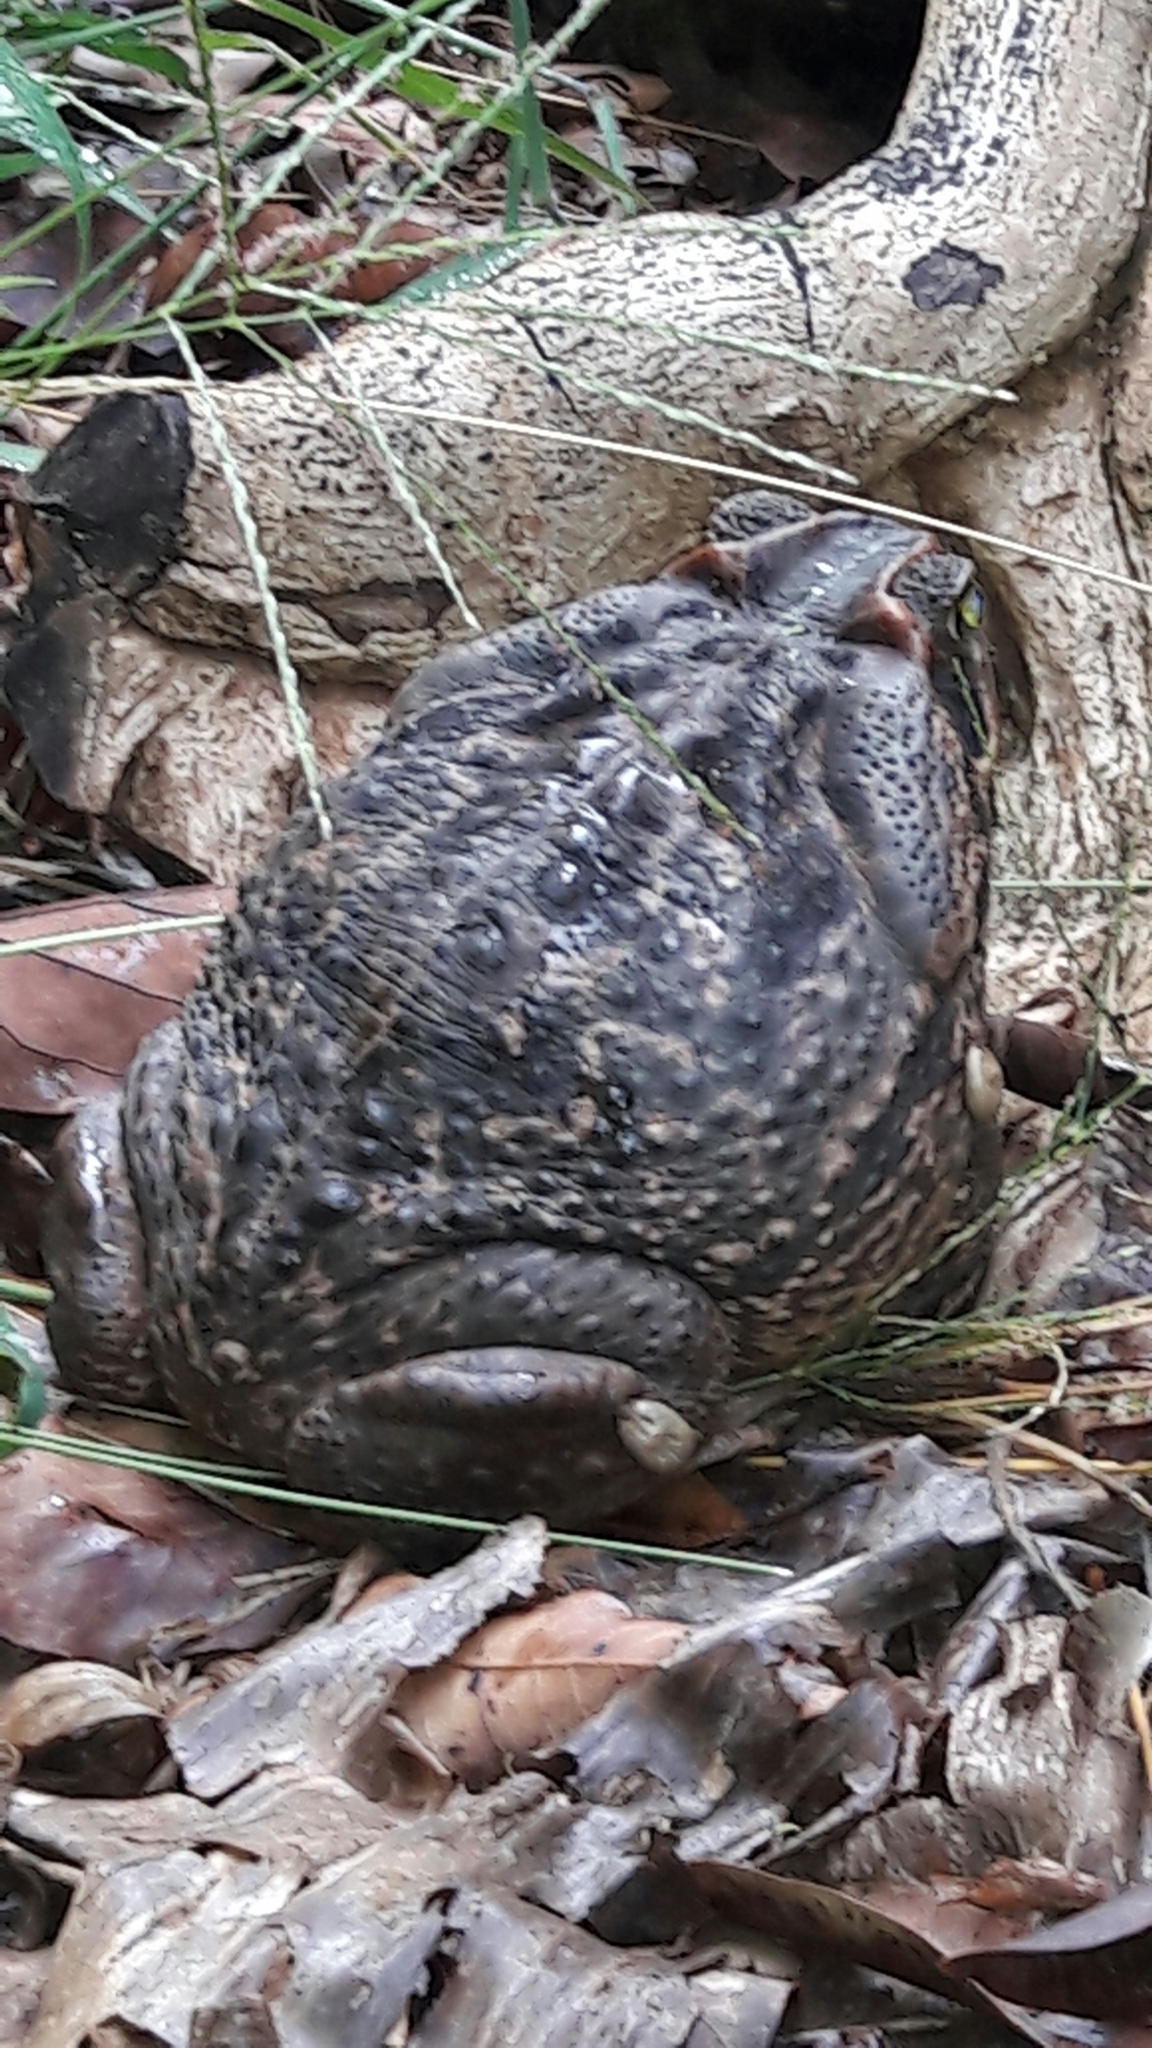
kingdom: Animalia
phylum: Chordata
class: Amphibia
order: Anura
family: Bufonidae
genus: Rhinella
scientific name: Rhinella diptycha
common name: Cope's toad
